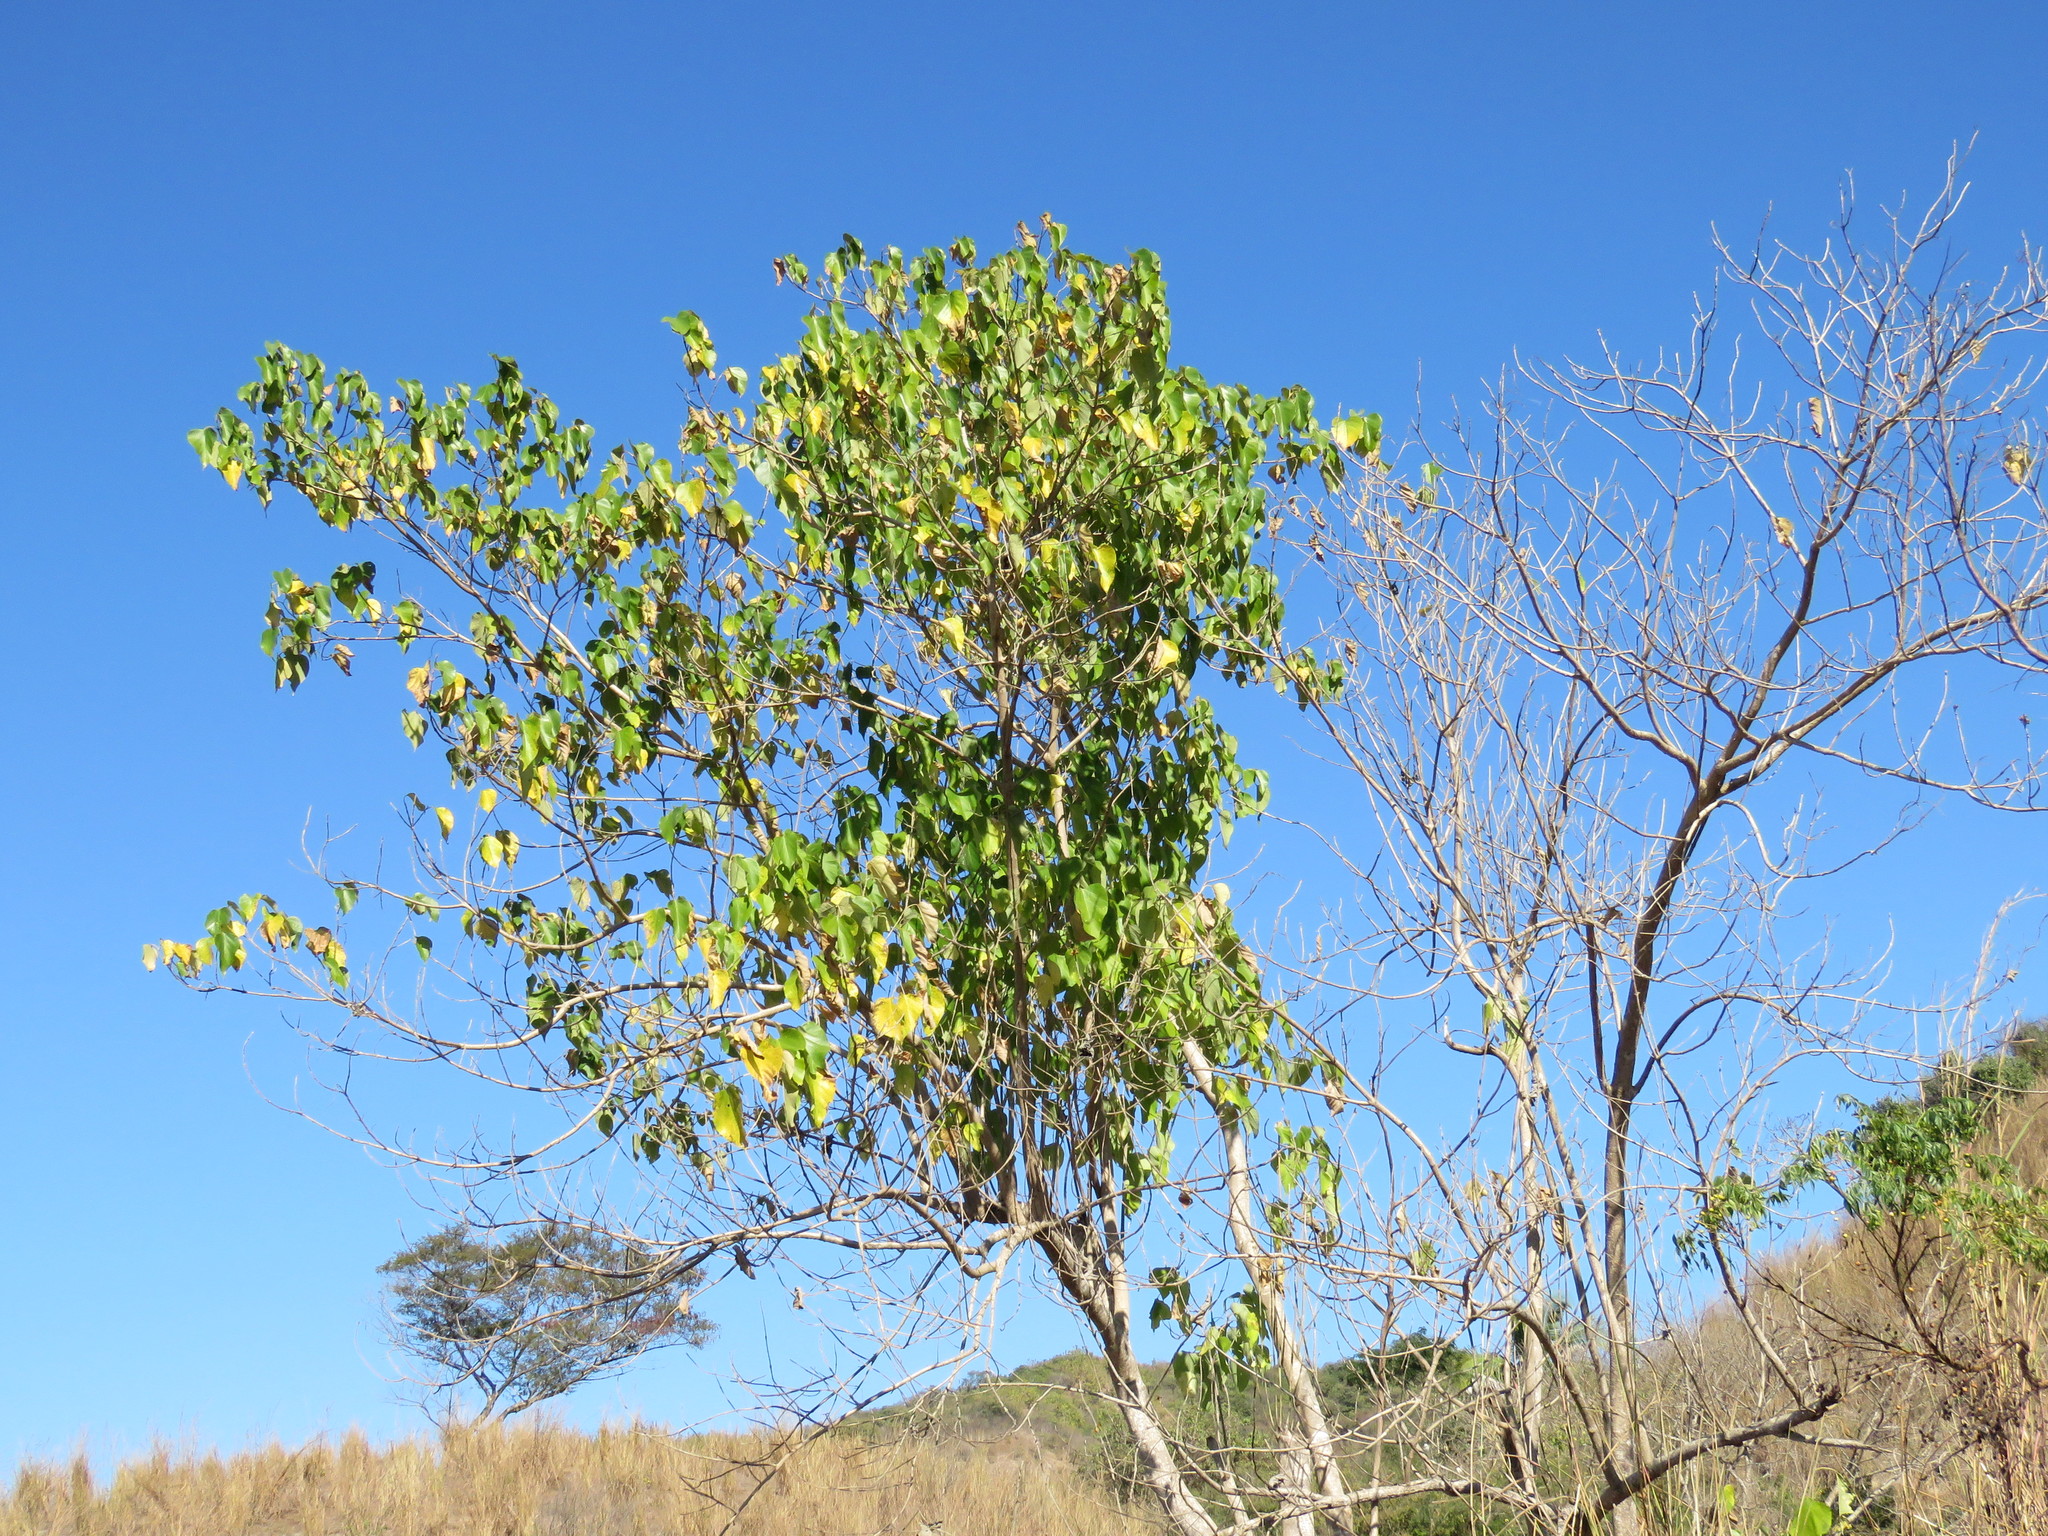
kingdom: Plantae
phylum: Tracheophyta
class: Magnoliopsida
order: Lamiales
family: Lamiaceae
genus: Gmelina
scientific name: Gmelina arborea
